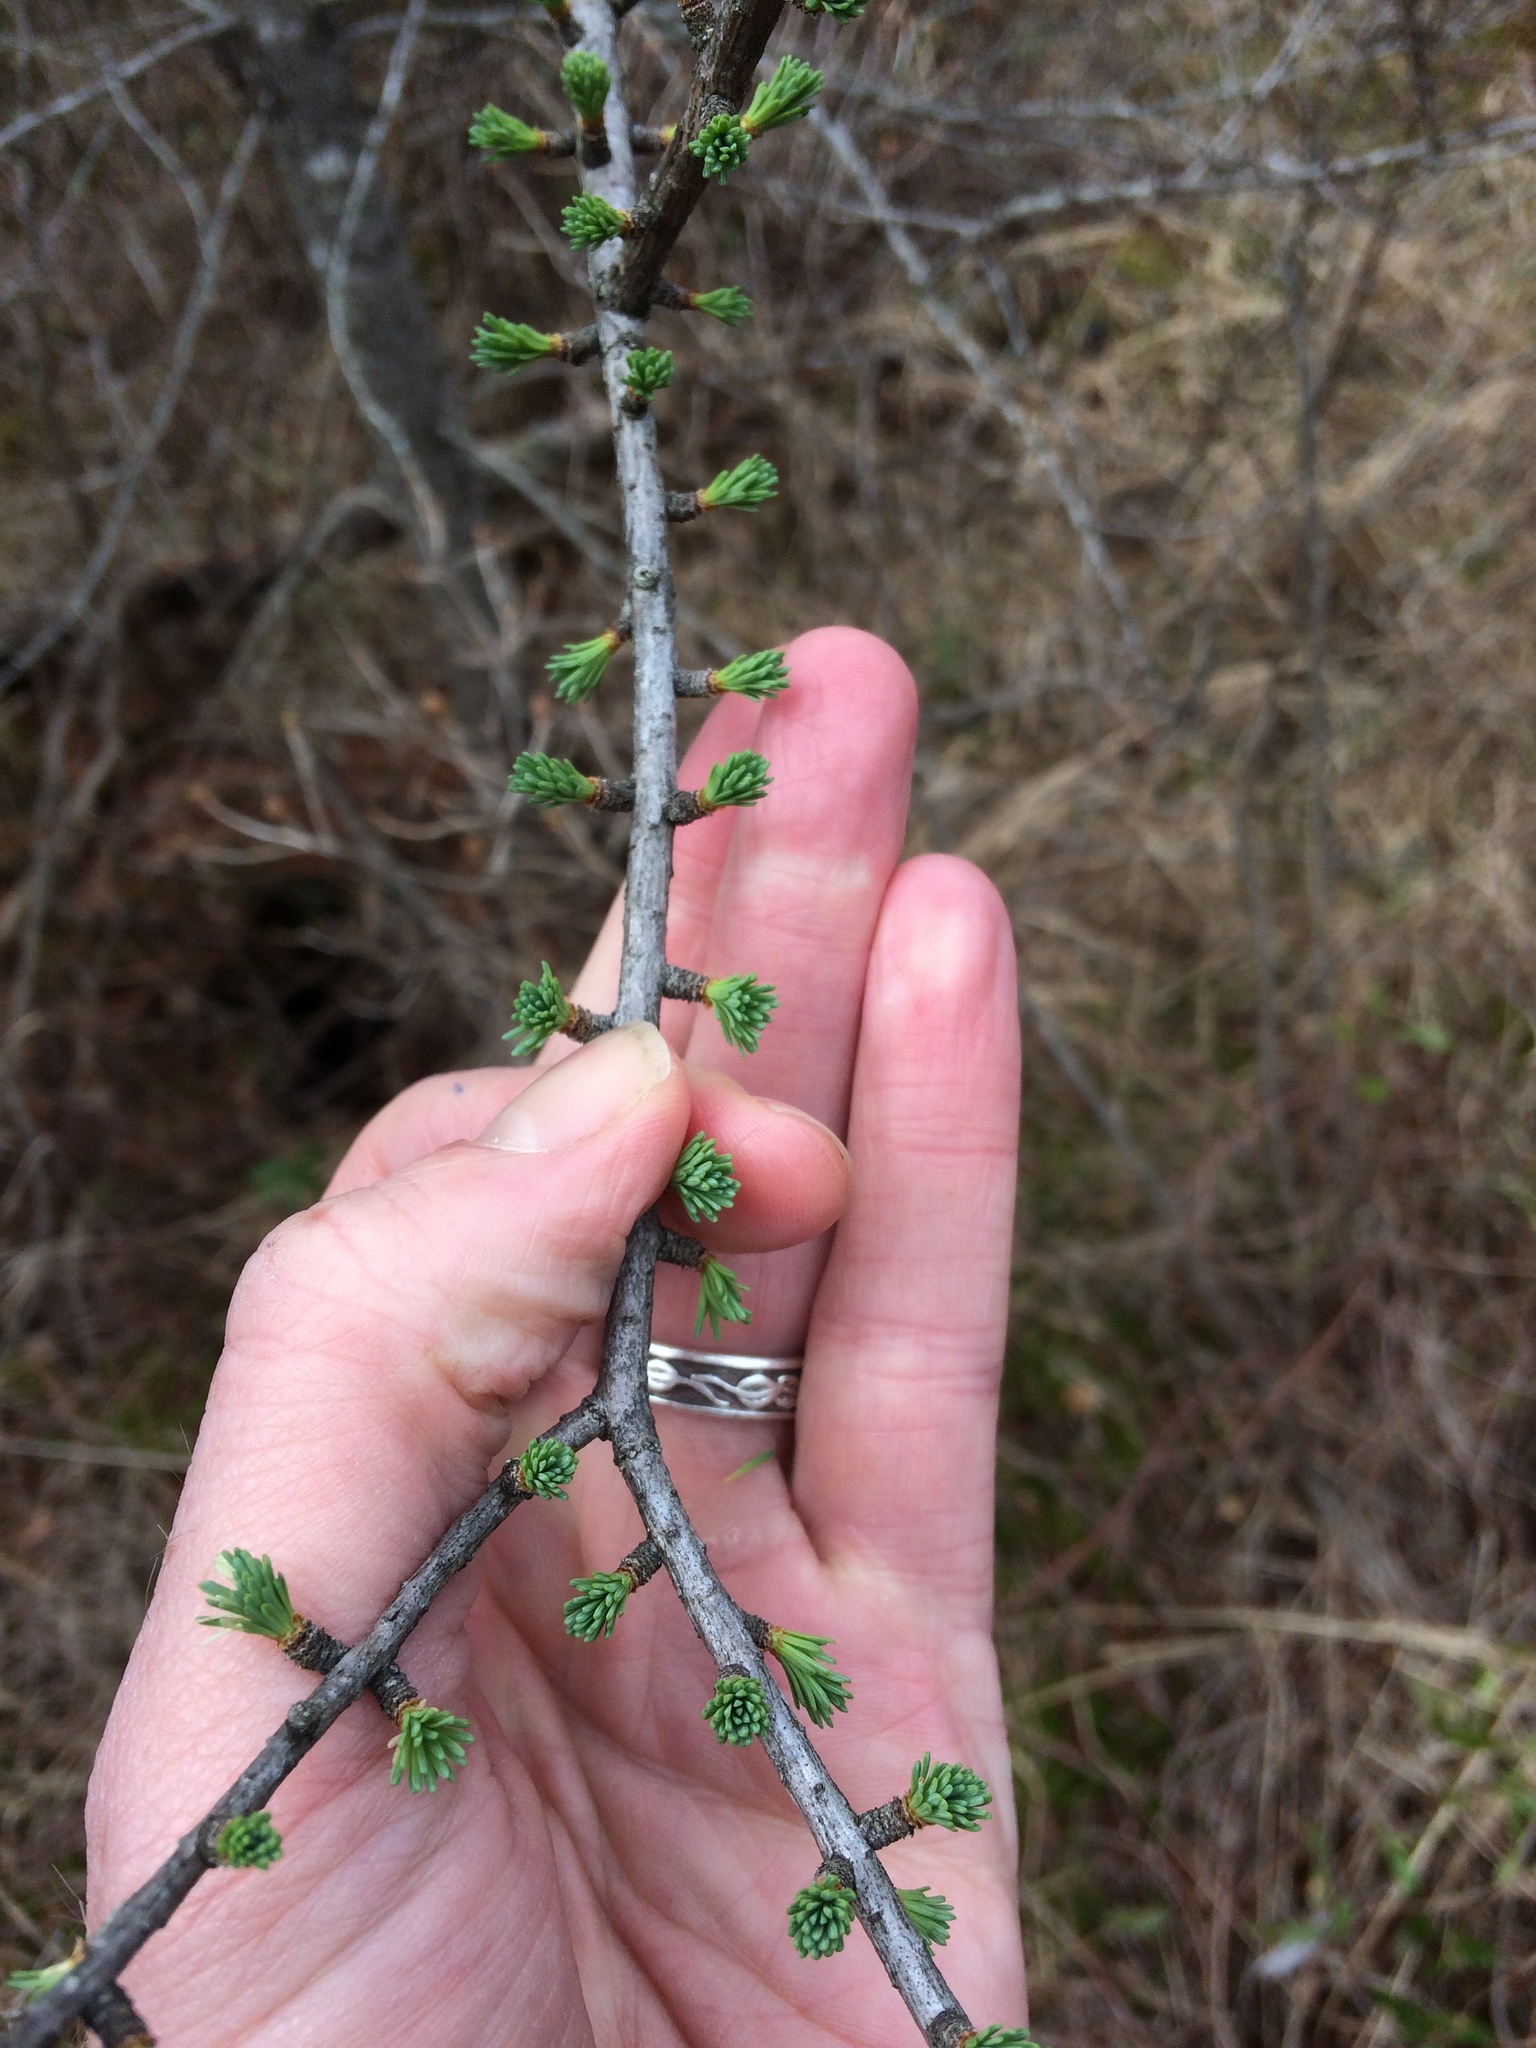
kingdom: Plantae
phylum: Tracheophyta
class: Pinopsida
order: Pinales
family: Pinaceae
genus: Larix
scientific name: Larix laricina
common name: American larch
